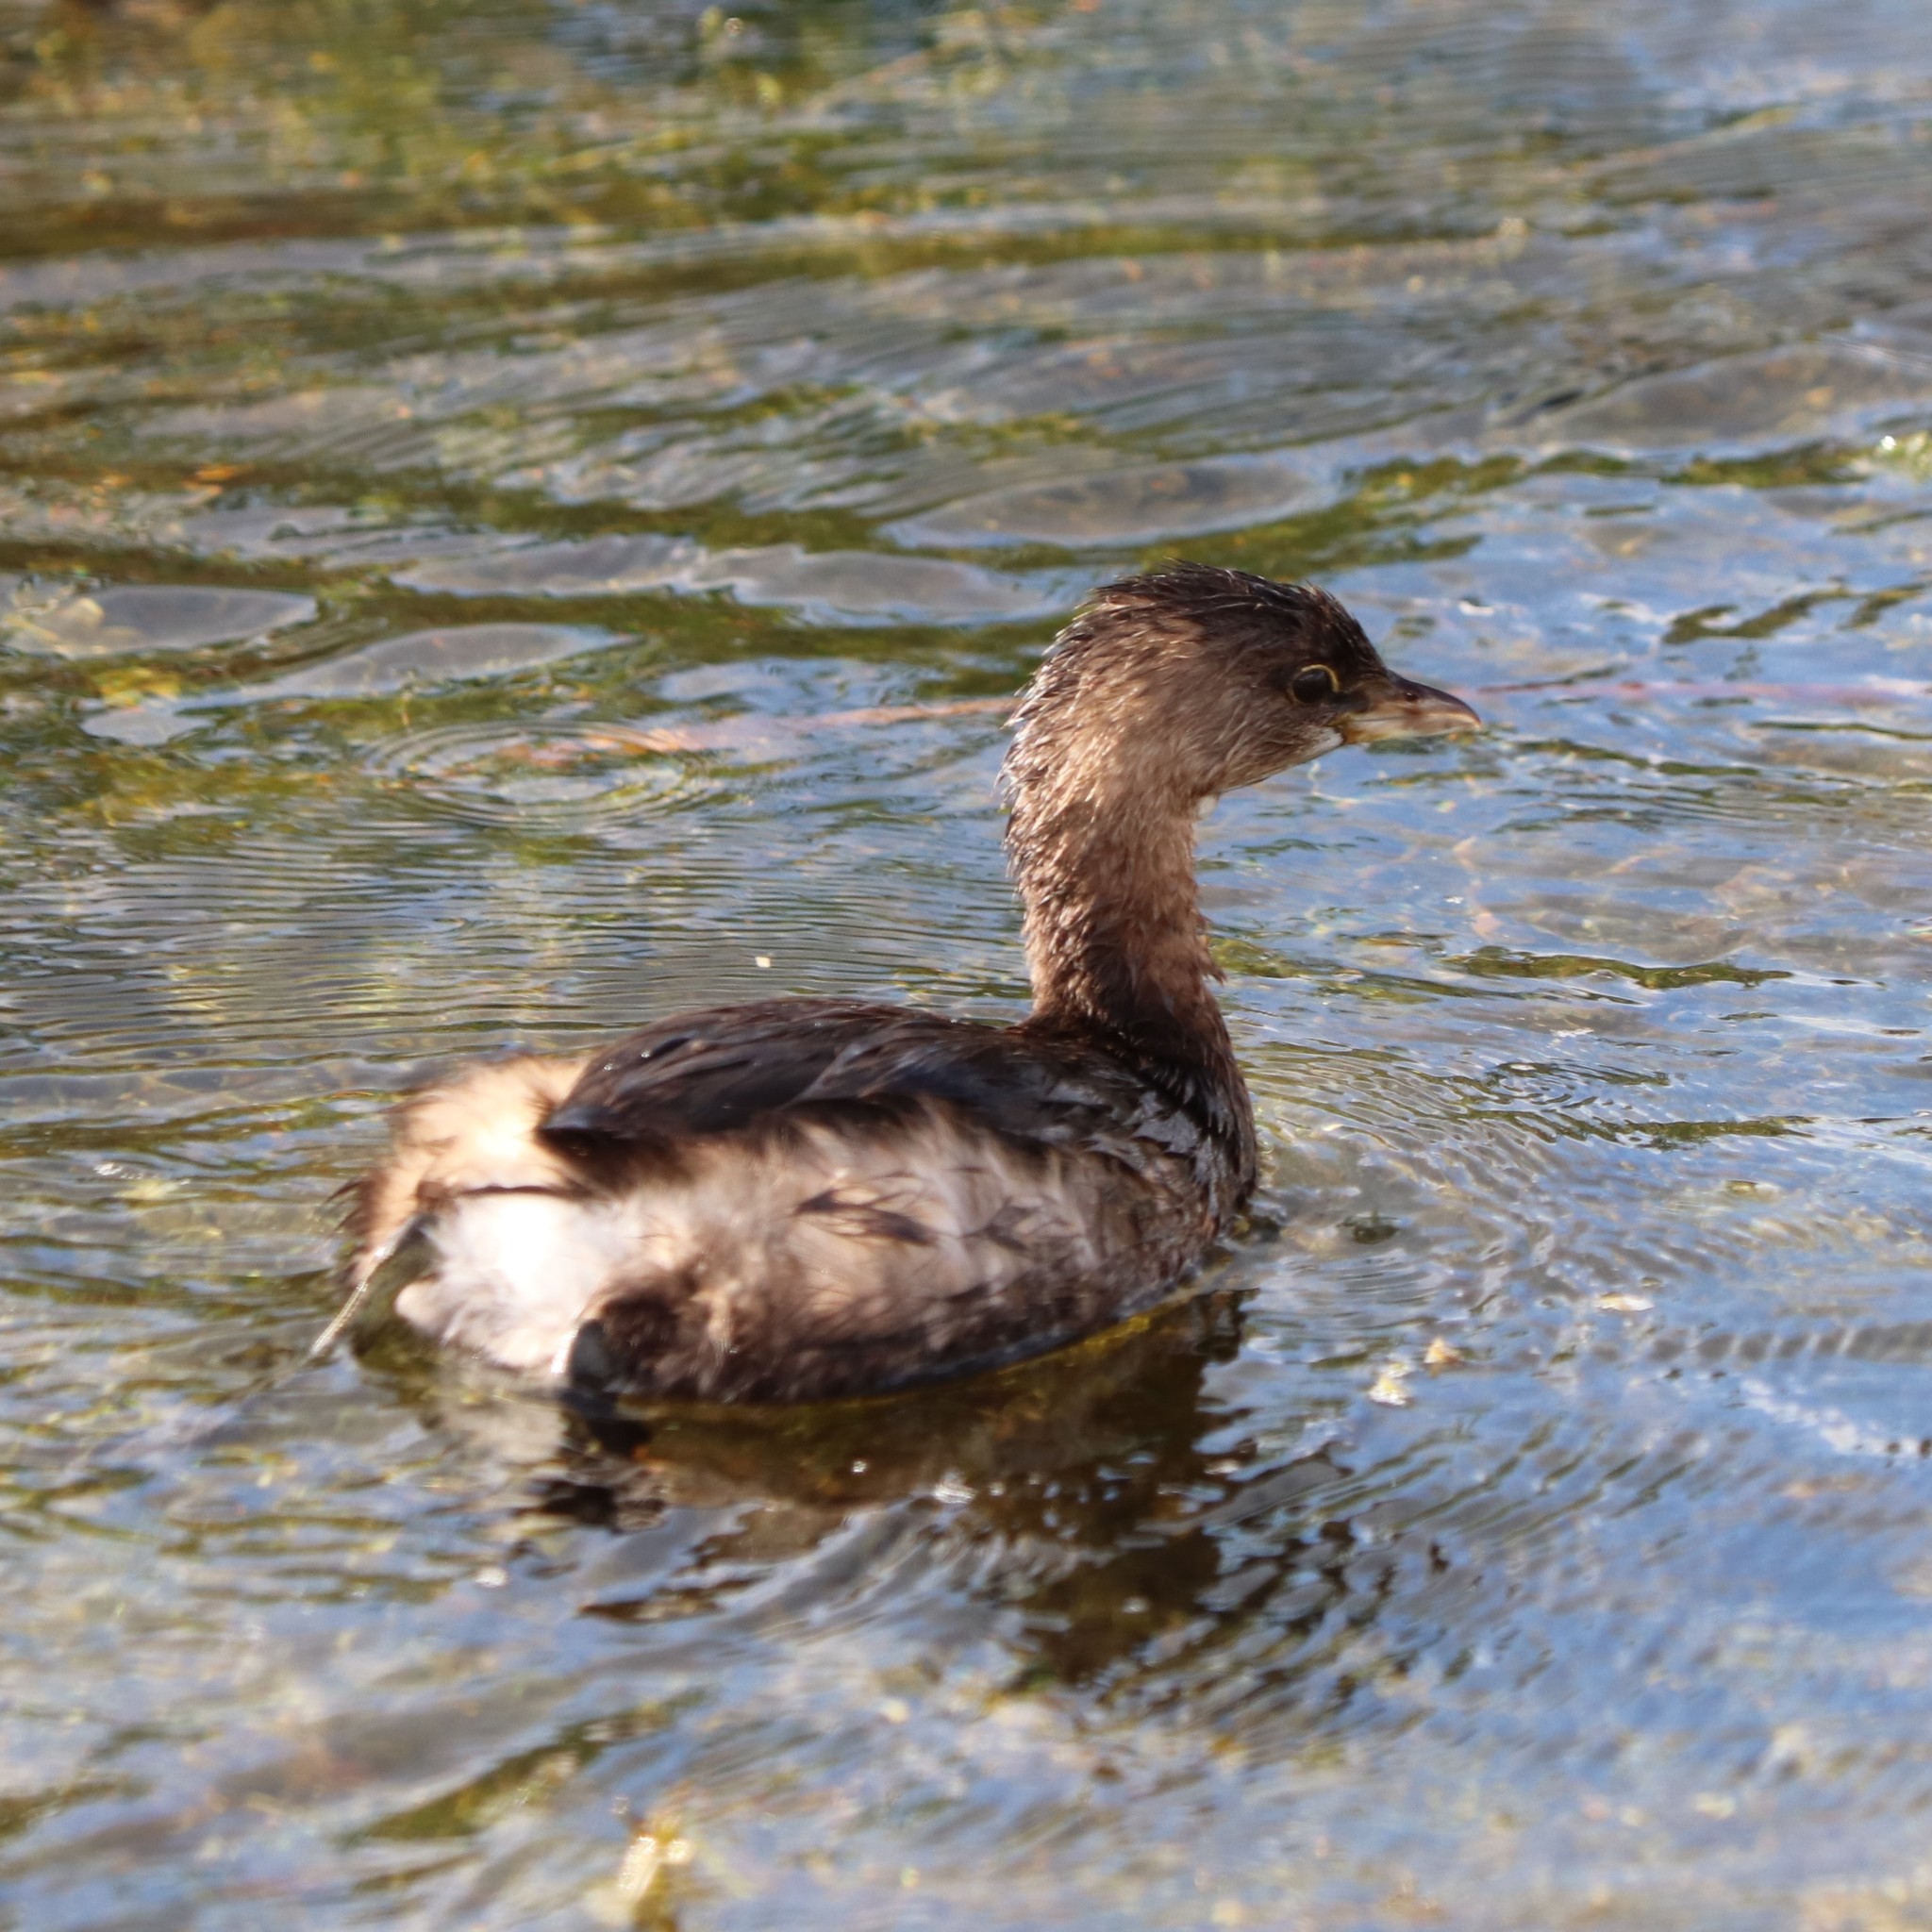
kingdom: Animalia
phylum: Chordata
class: Aves
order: Podicipediformes
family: Podicipedidae
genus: Podilymbus
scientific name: Podilymbus podiceps
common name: Pied-billed grebe
